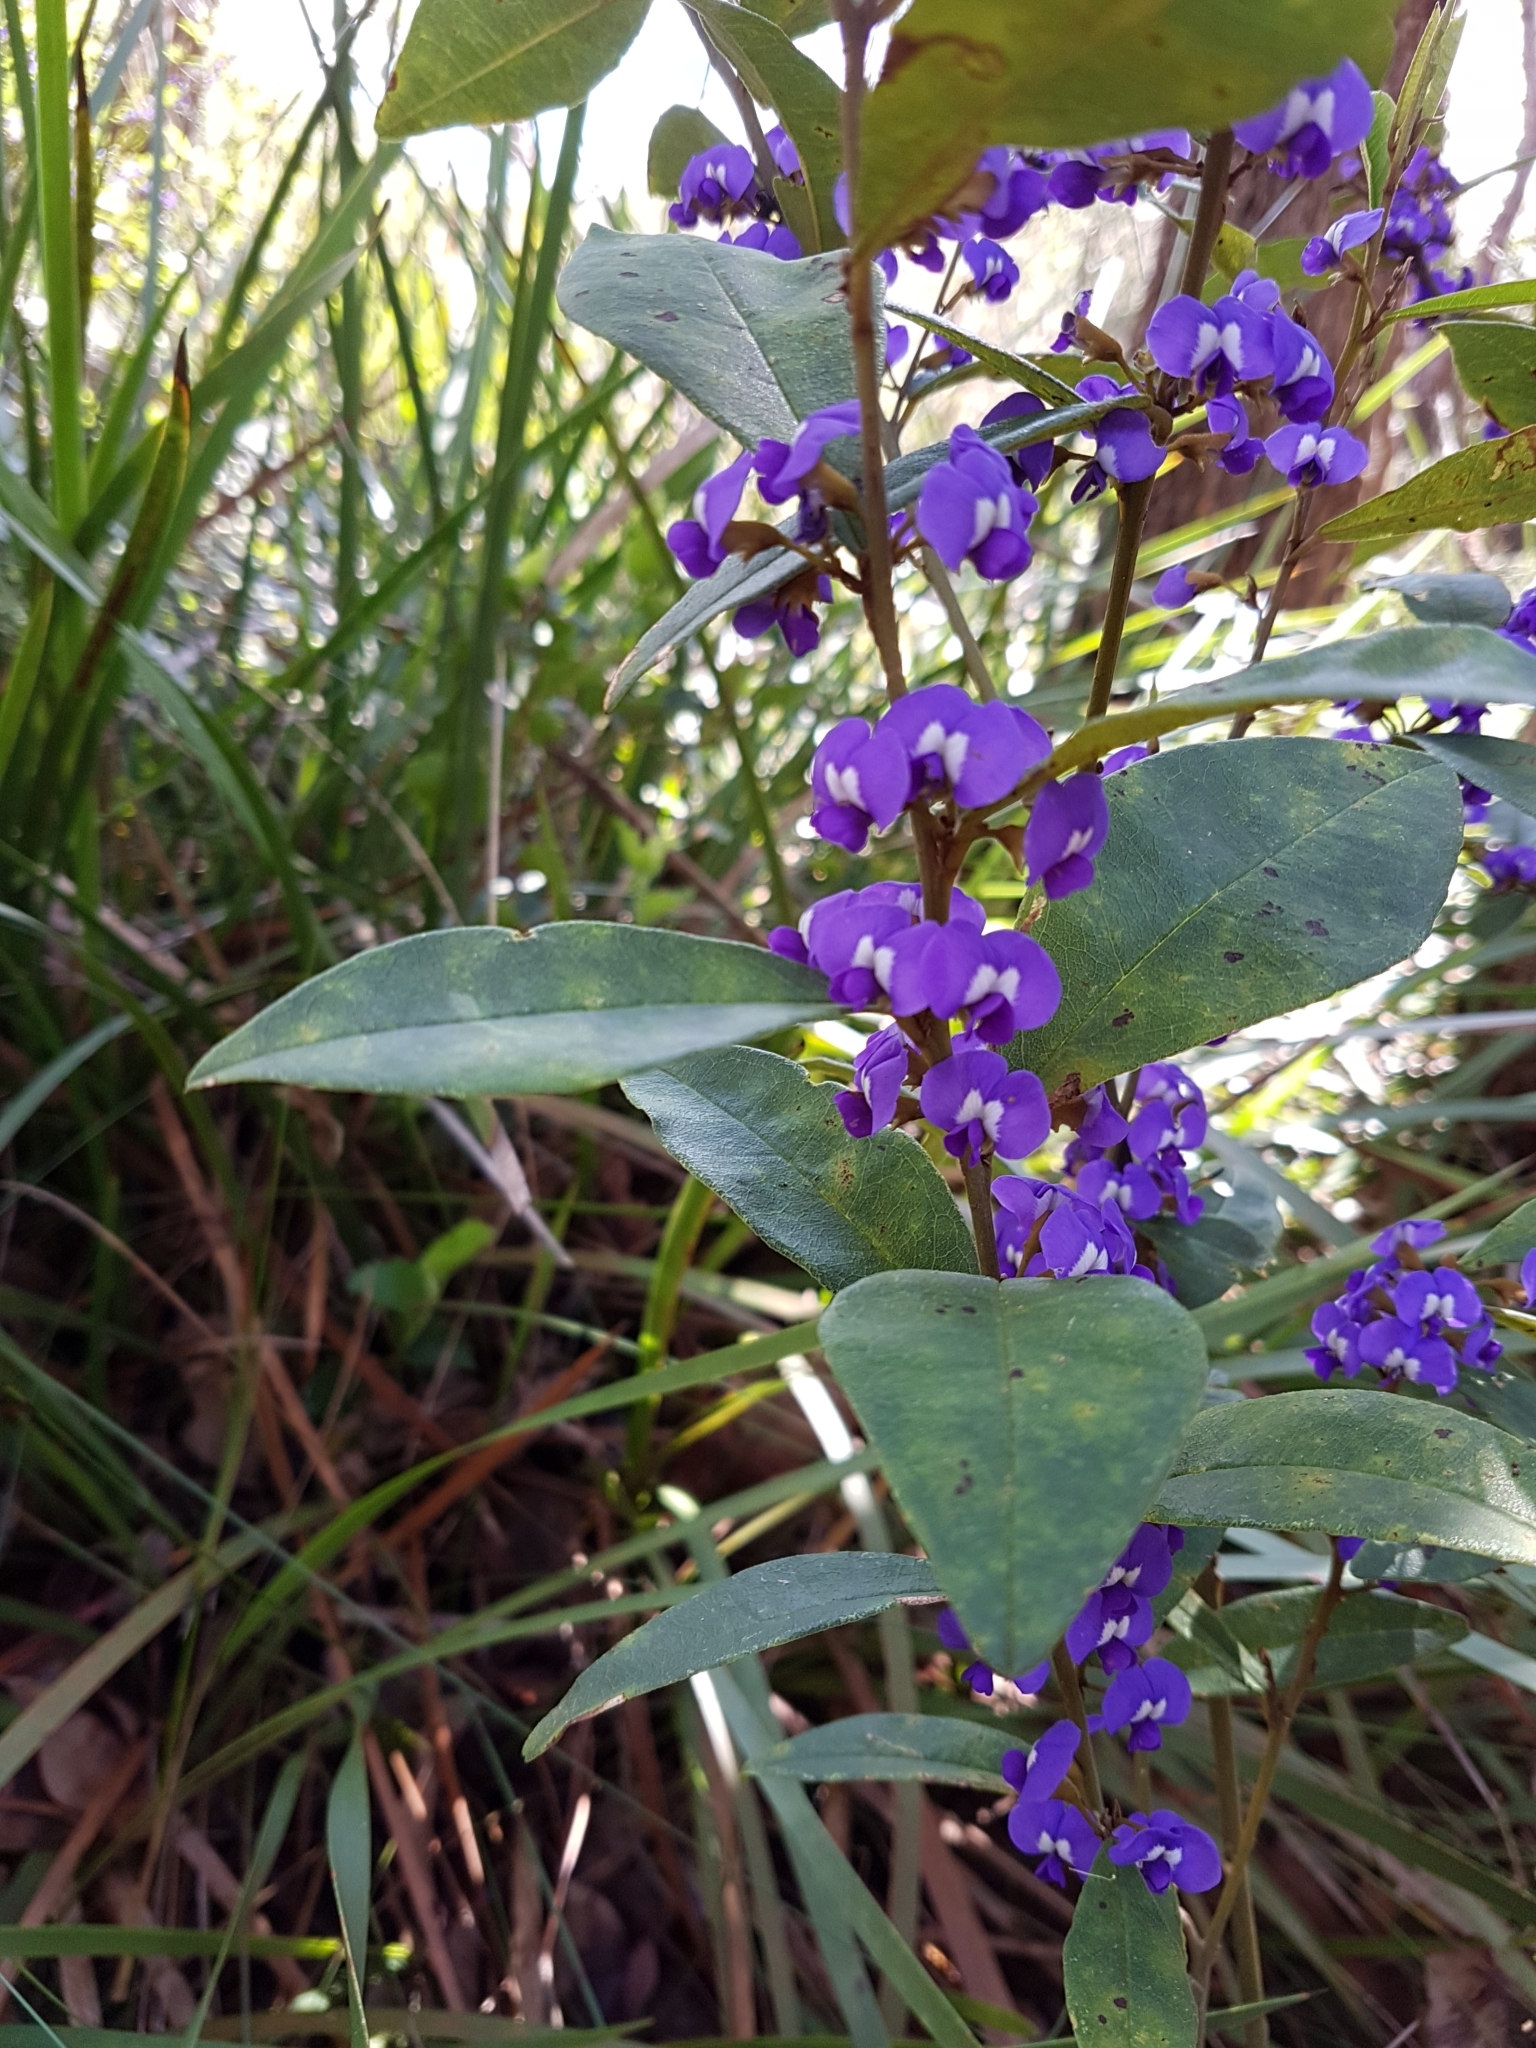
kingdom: Plantae
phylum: Tracheophyta
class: Magnoliopsida
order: Fabales
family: Fabaceae
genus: Hovea
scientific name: Hovea elliptica
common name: Tree hovea
